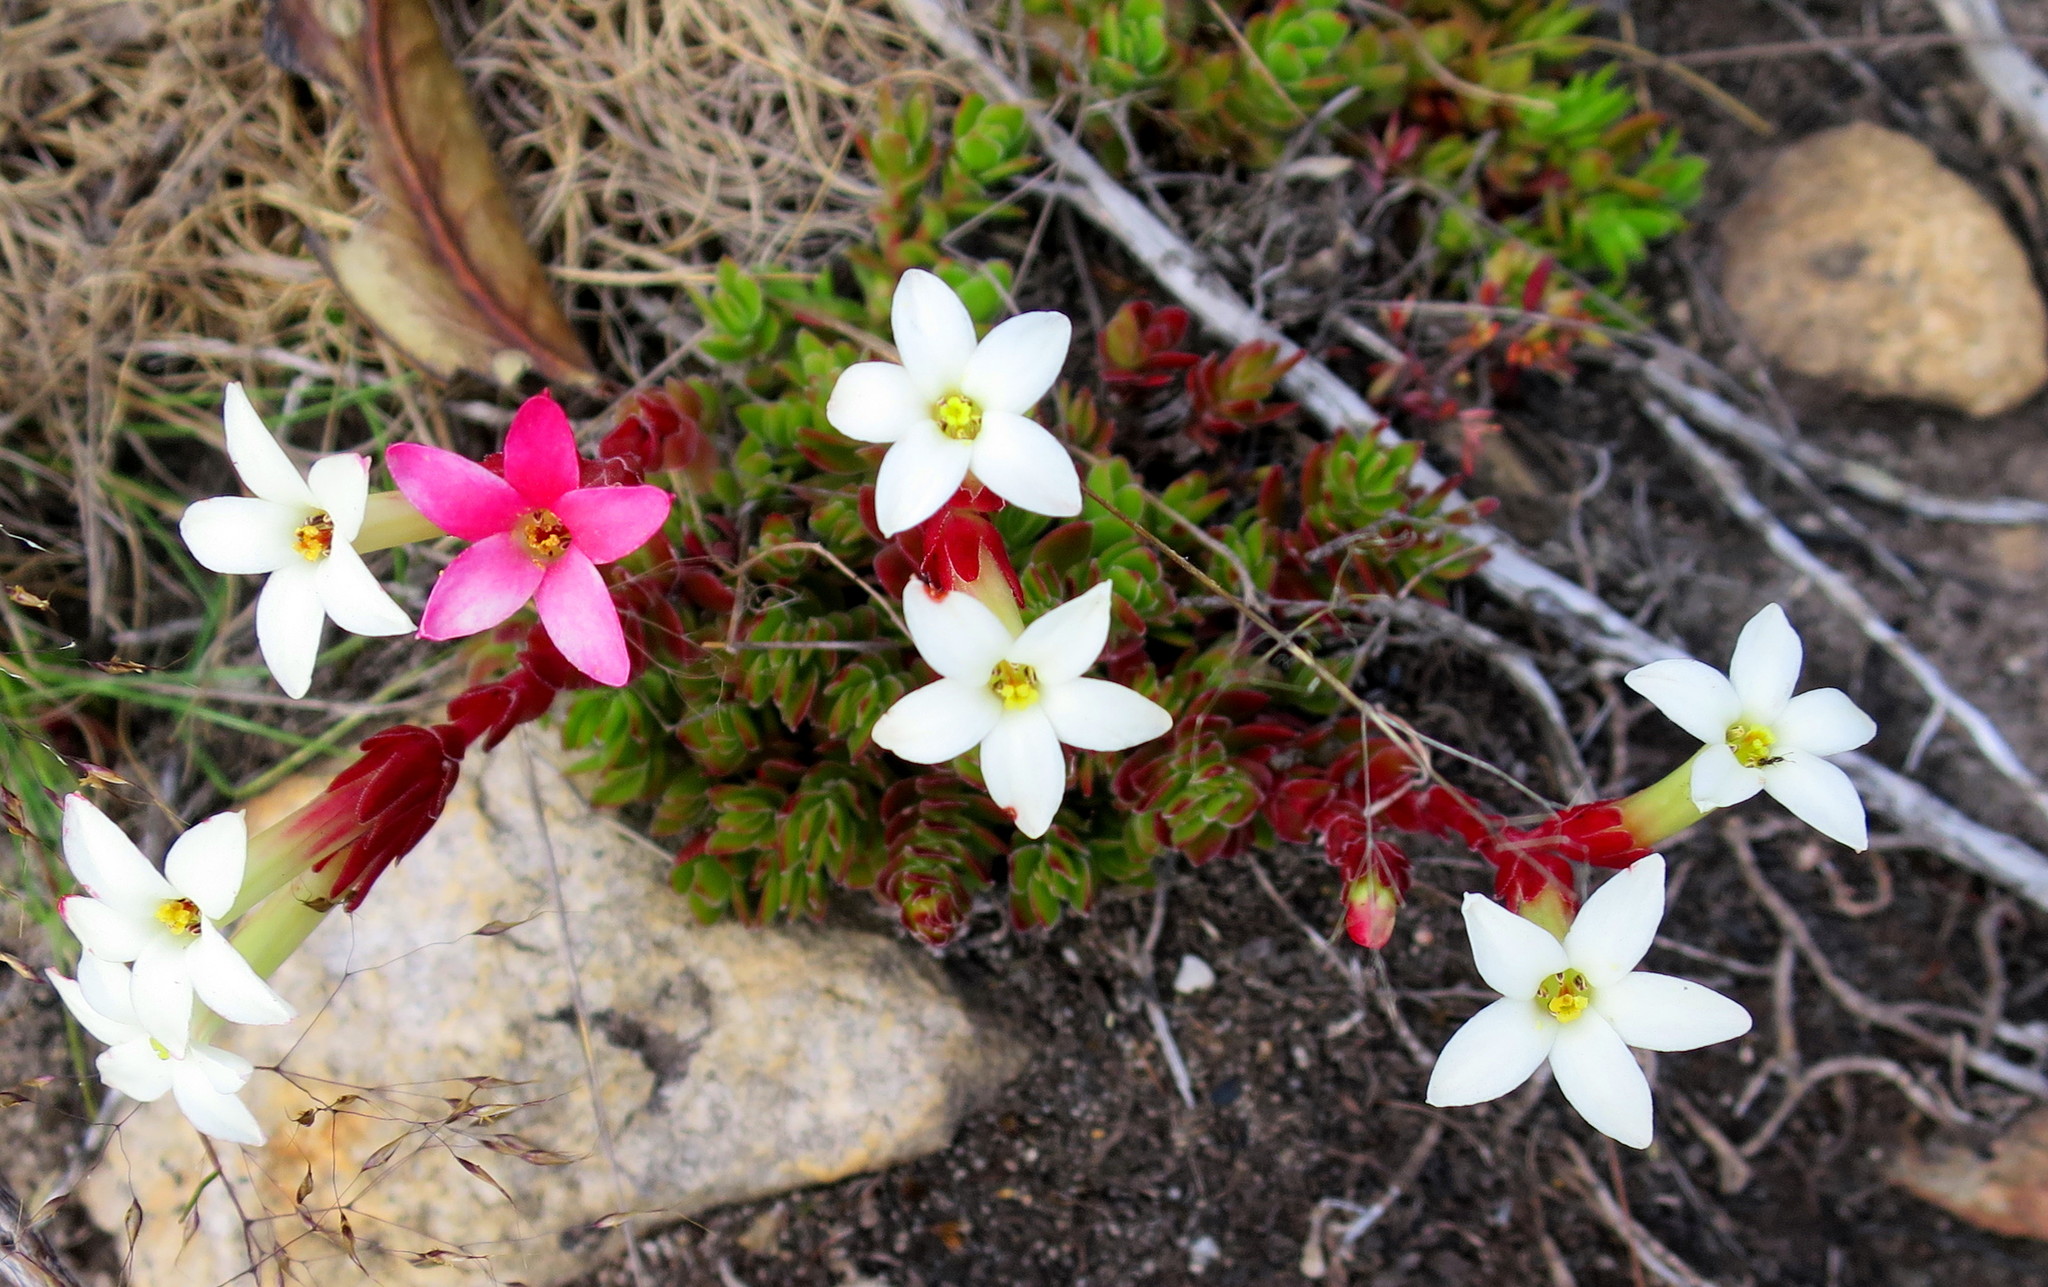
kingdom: Plantae
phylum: Tracheophyta
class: Magnoliopsida
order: Saxifragales
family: Crassulaceae
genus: Crassula
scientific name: Crassula obtusa
